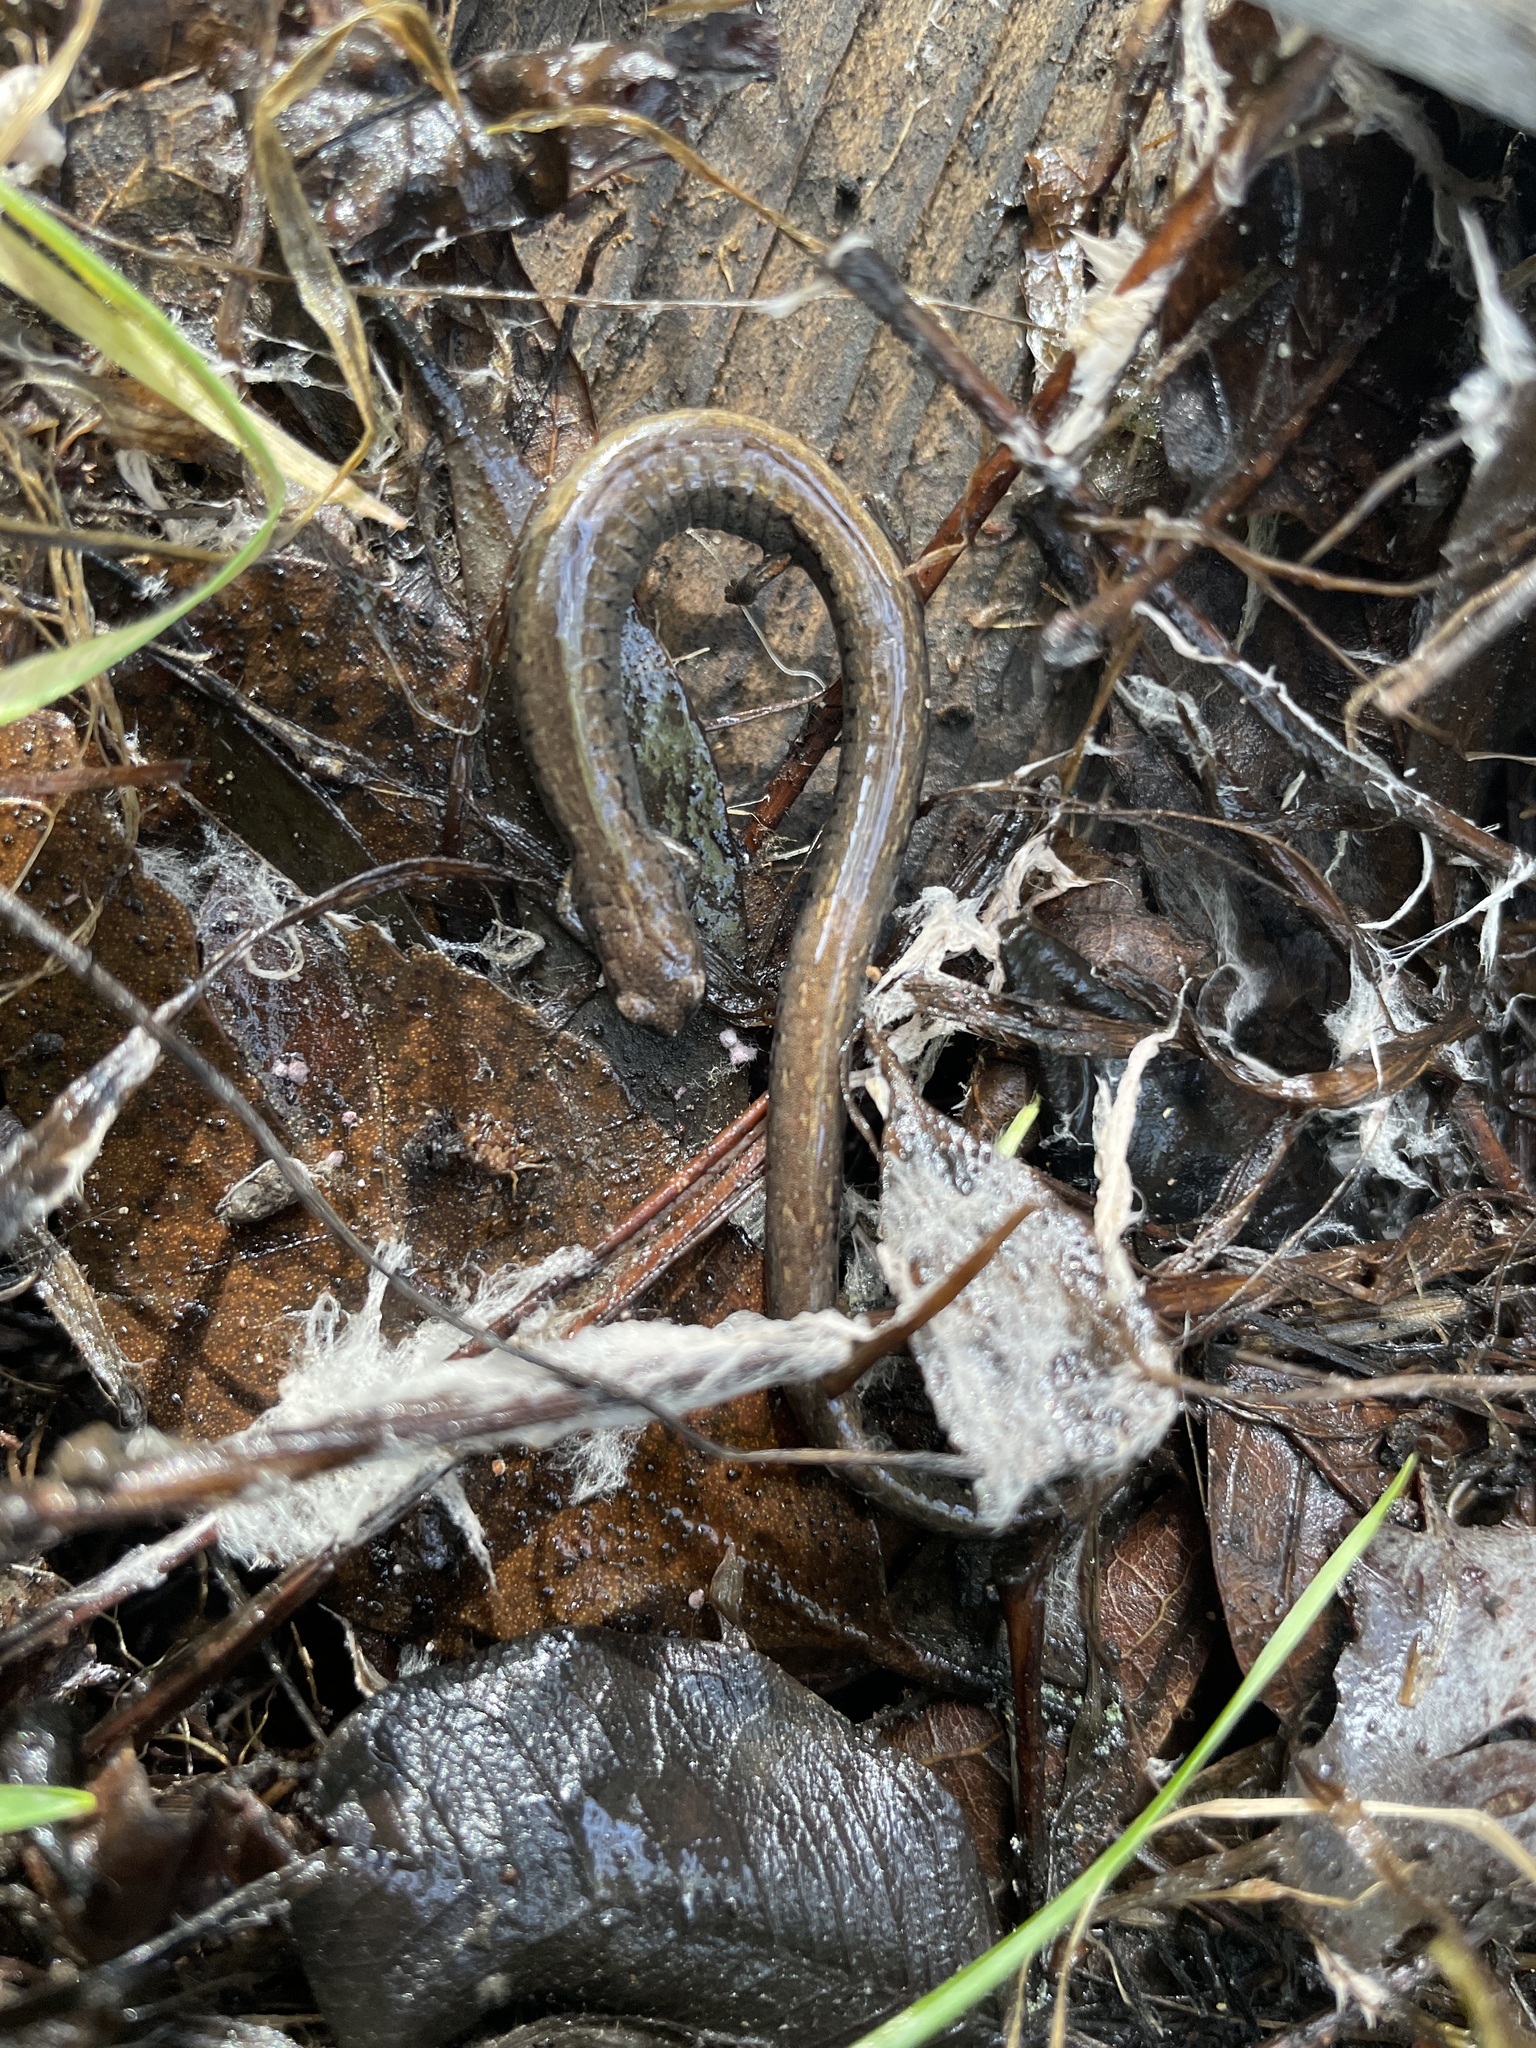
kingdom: Animalia
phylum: Chordata
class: Amphibia
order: Caudata
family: Plethodontidae
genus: Batrachoseps
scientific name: Batrachoseps attenuatus
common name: California slender salamander
